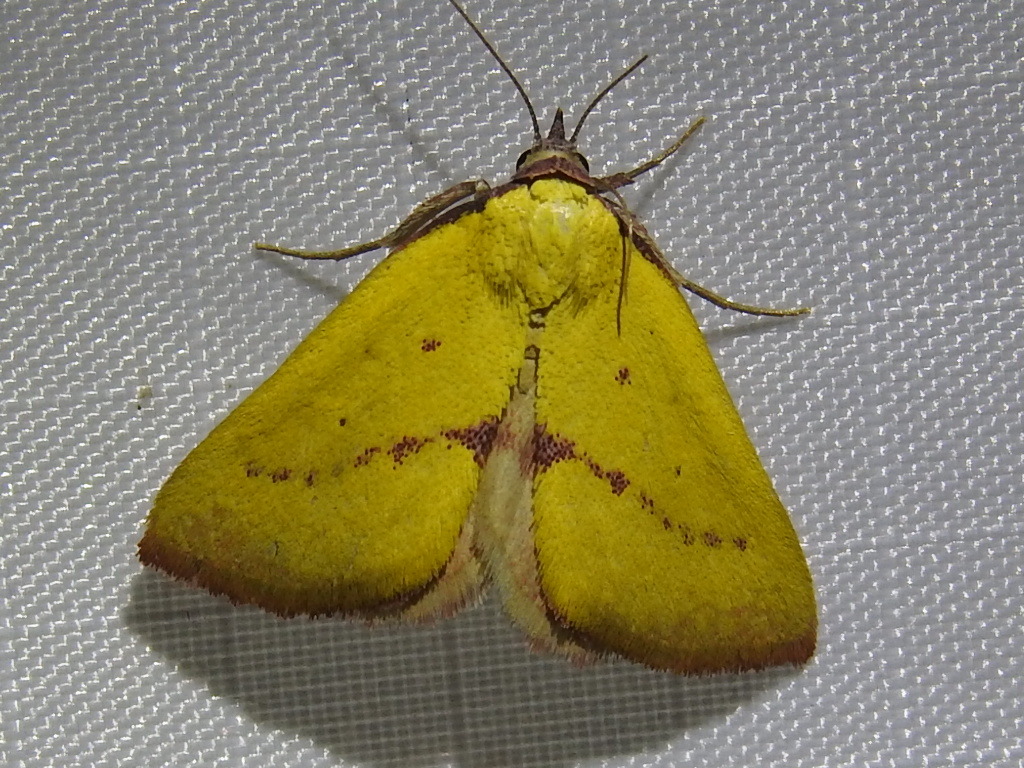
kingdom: Animalia
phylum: Arthropoda
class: Insecta
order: Lepidoptera
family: Erebidae
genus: Phytometra
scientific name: Phytometra orgiae
